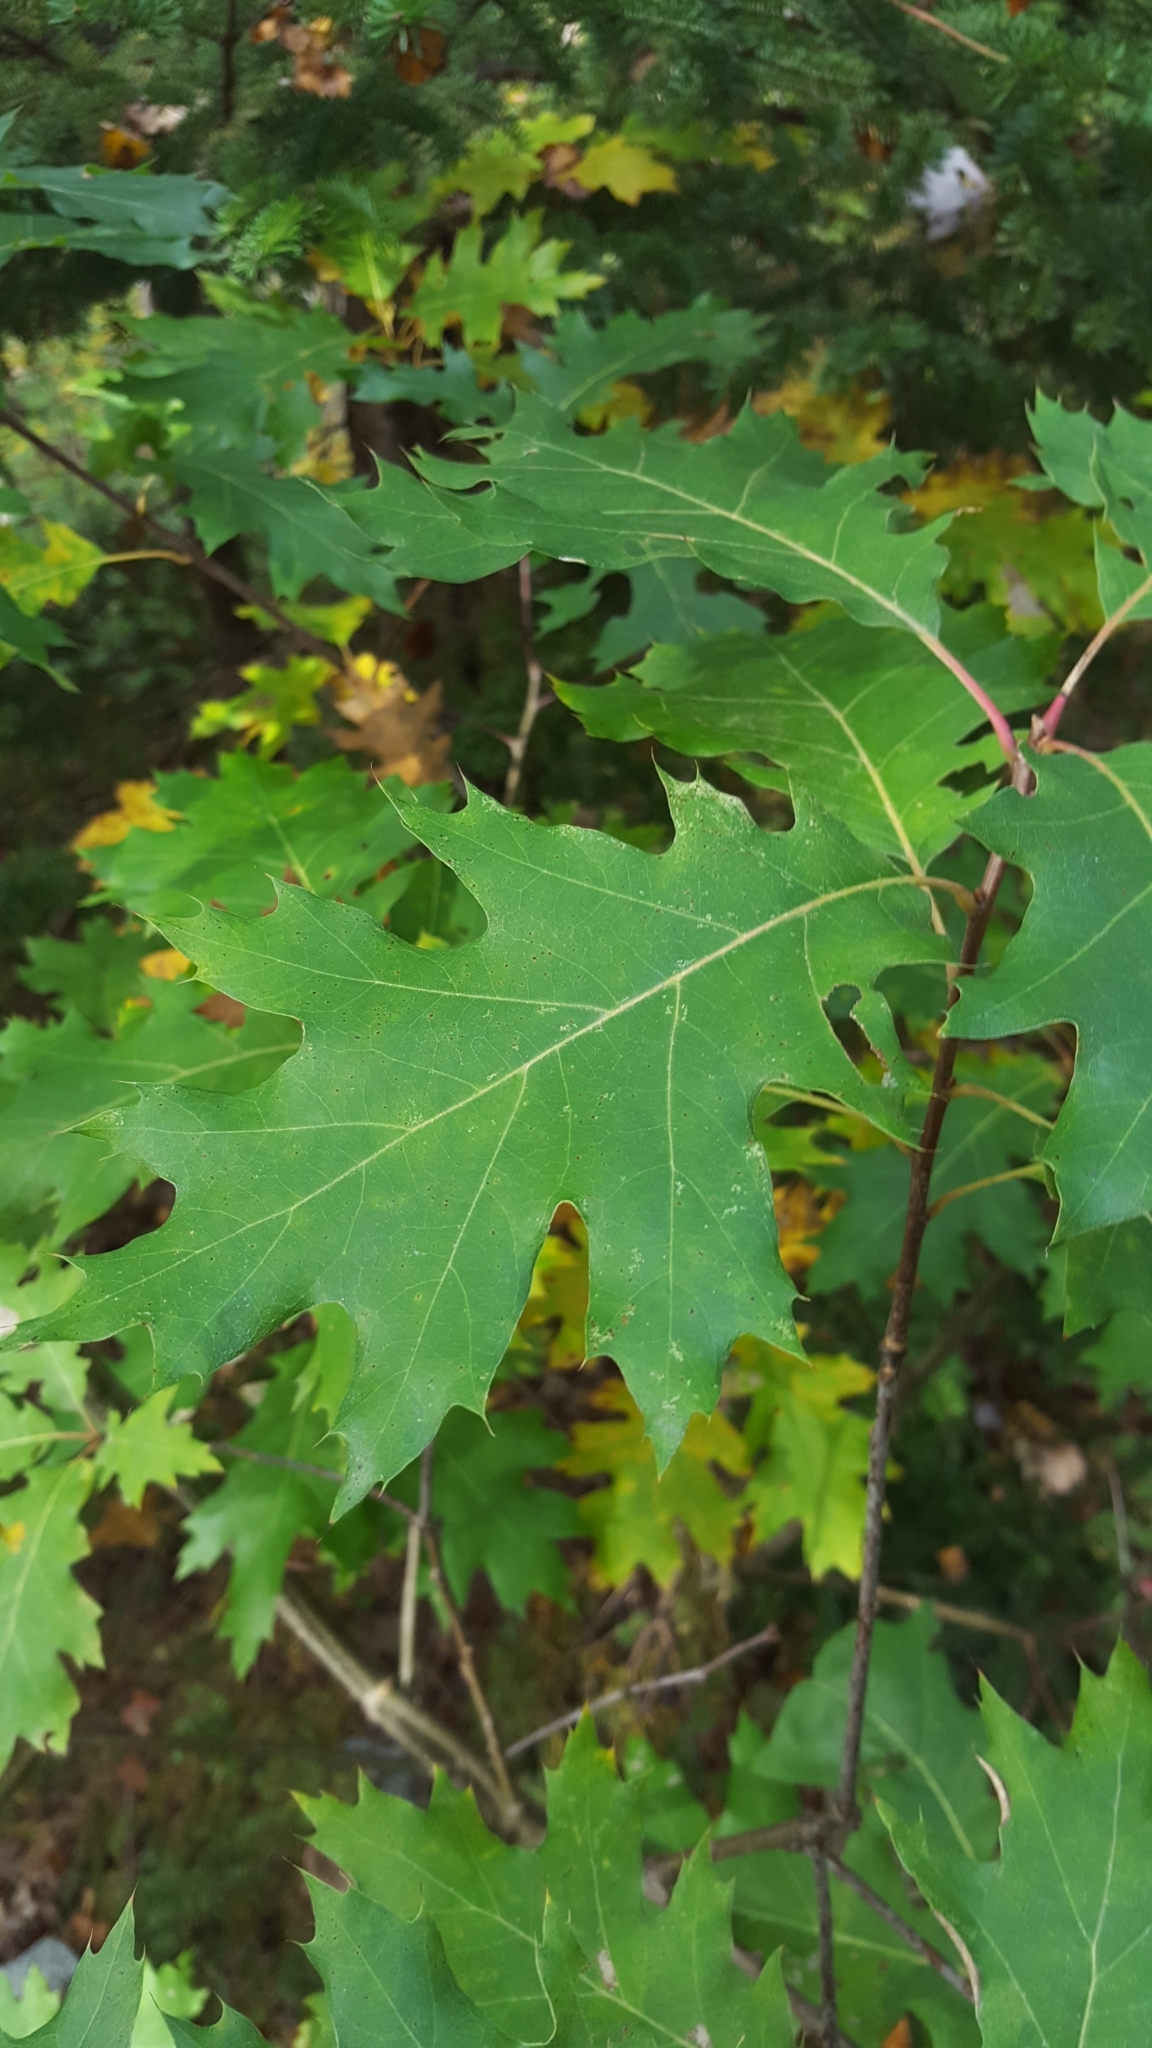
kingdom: Plantae
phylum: Tracheophyta
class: Magnoliopsida
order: Fagales
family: Fagaceae
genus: Quercus
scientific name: Quercus rubra
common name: Red oak
